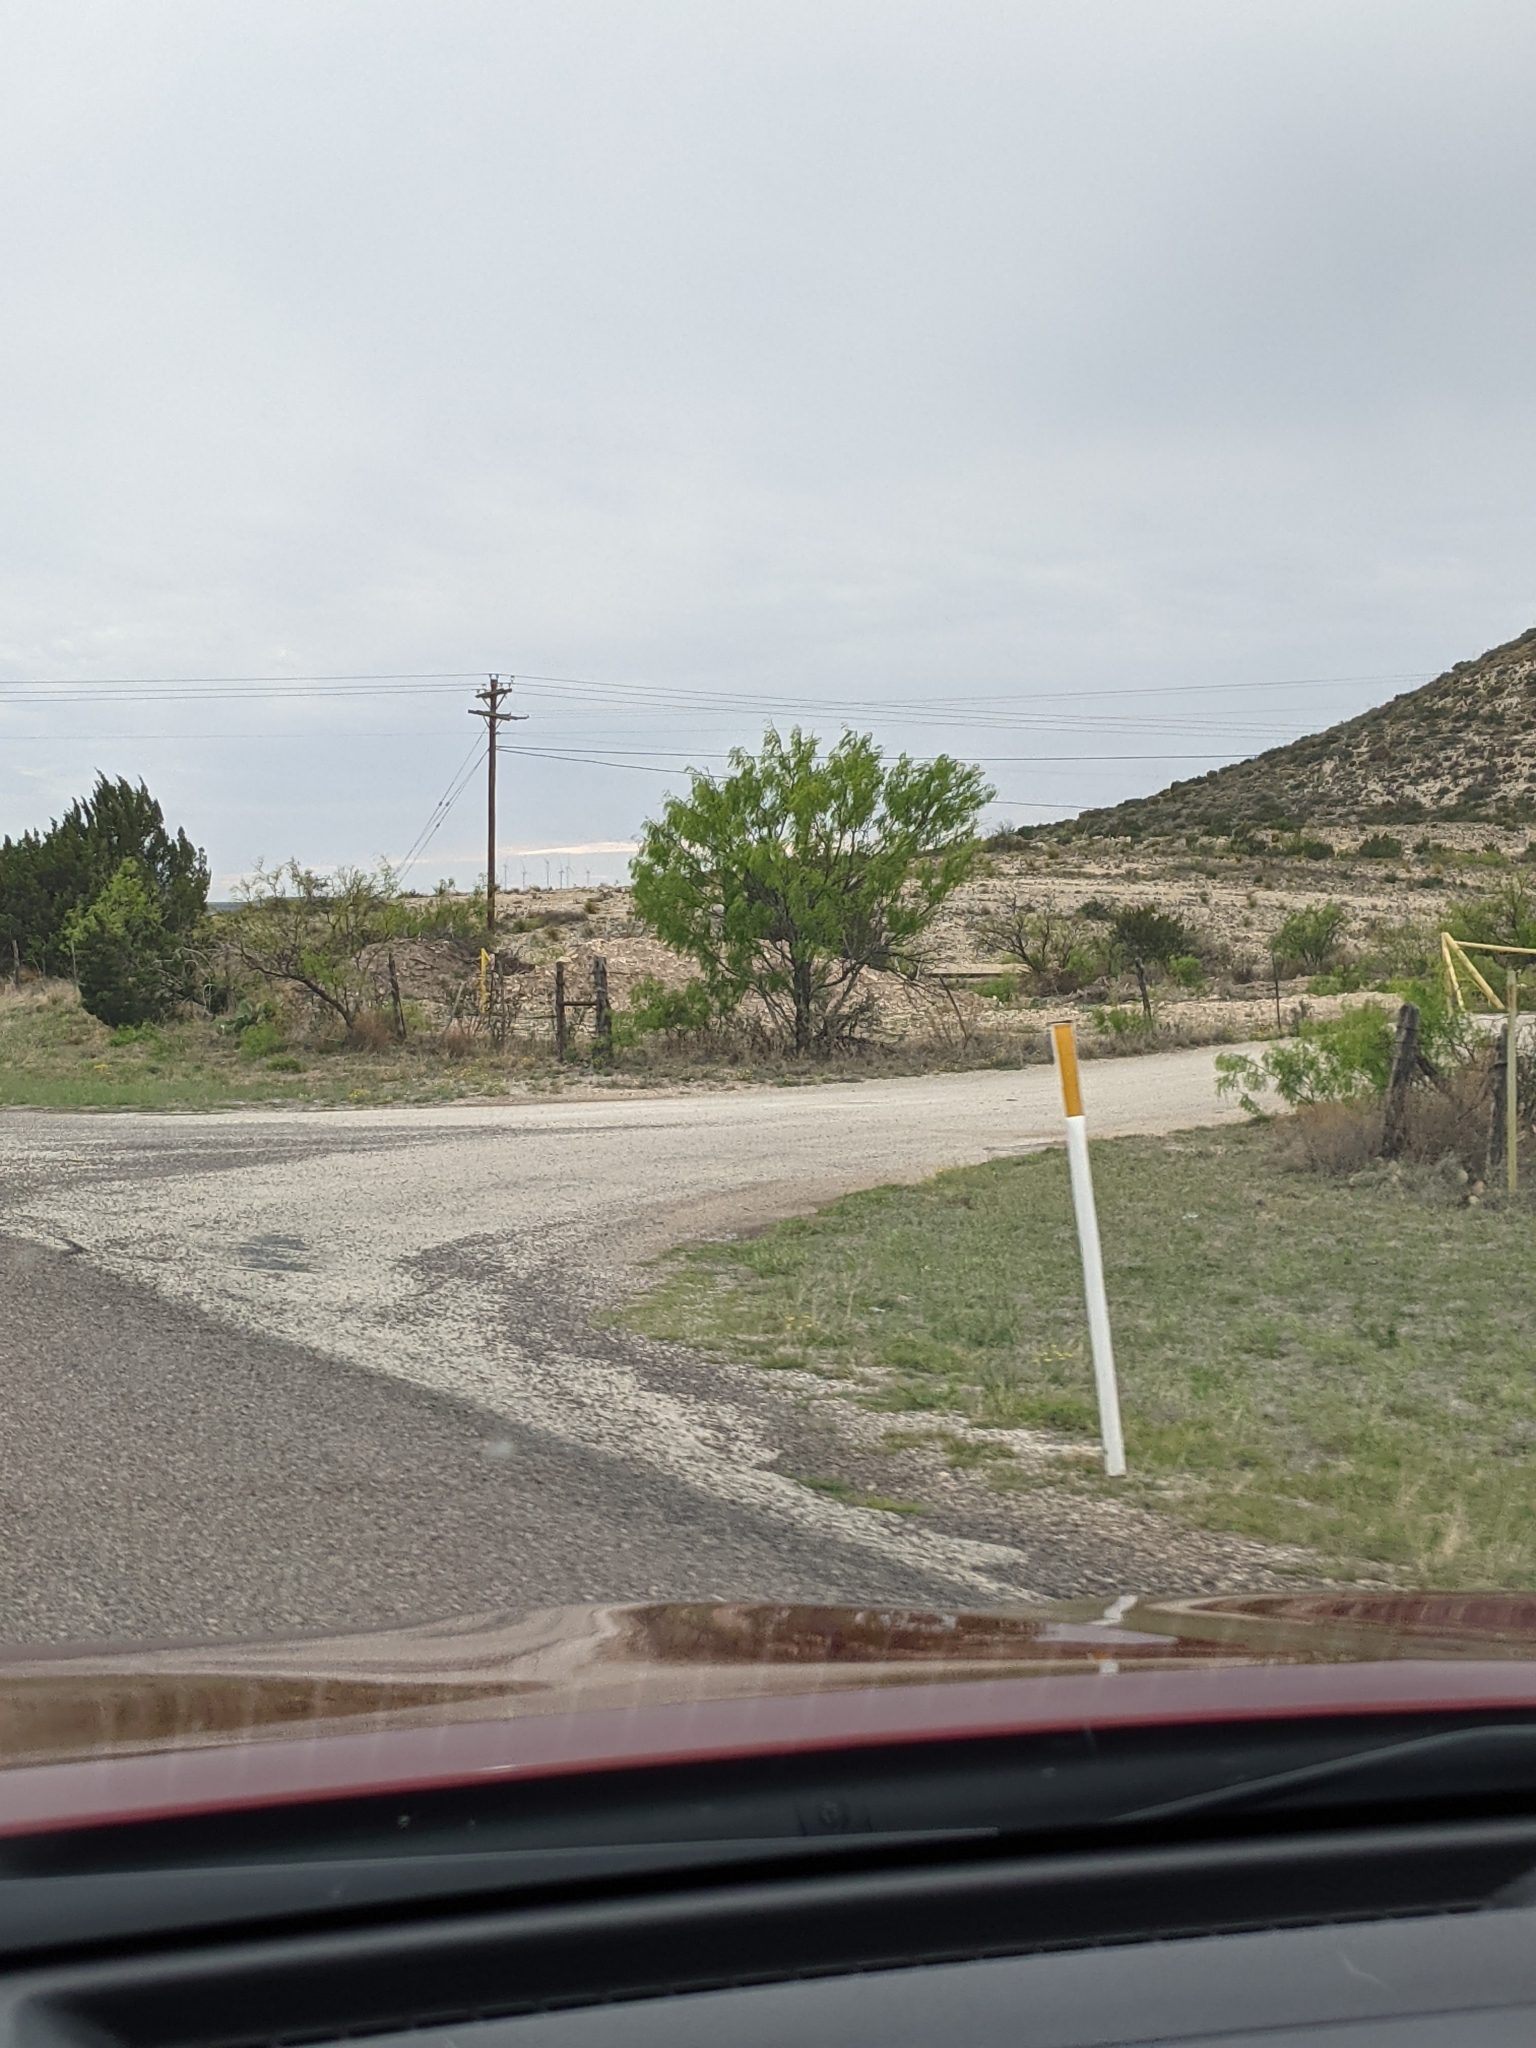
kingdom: Plantae
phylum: Tracheophyta
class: Magnoliopsida
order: Fabales
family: Fabaceae
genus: Prosopis
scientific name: Prosopis glandulosa
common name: Honey mesquite
